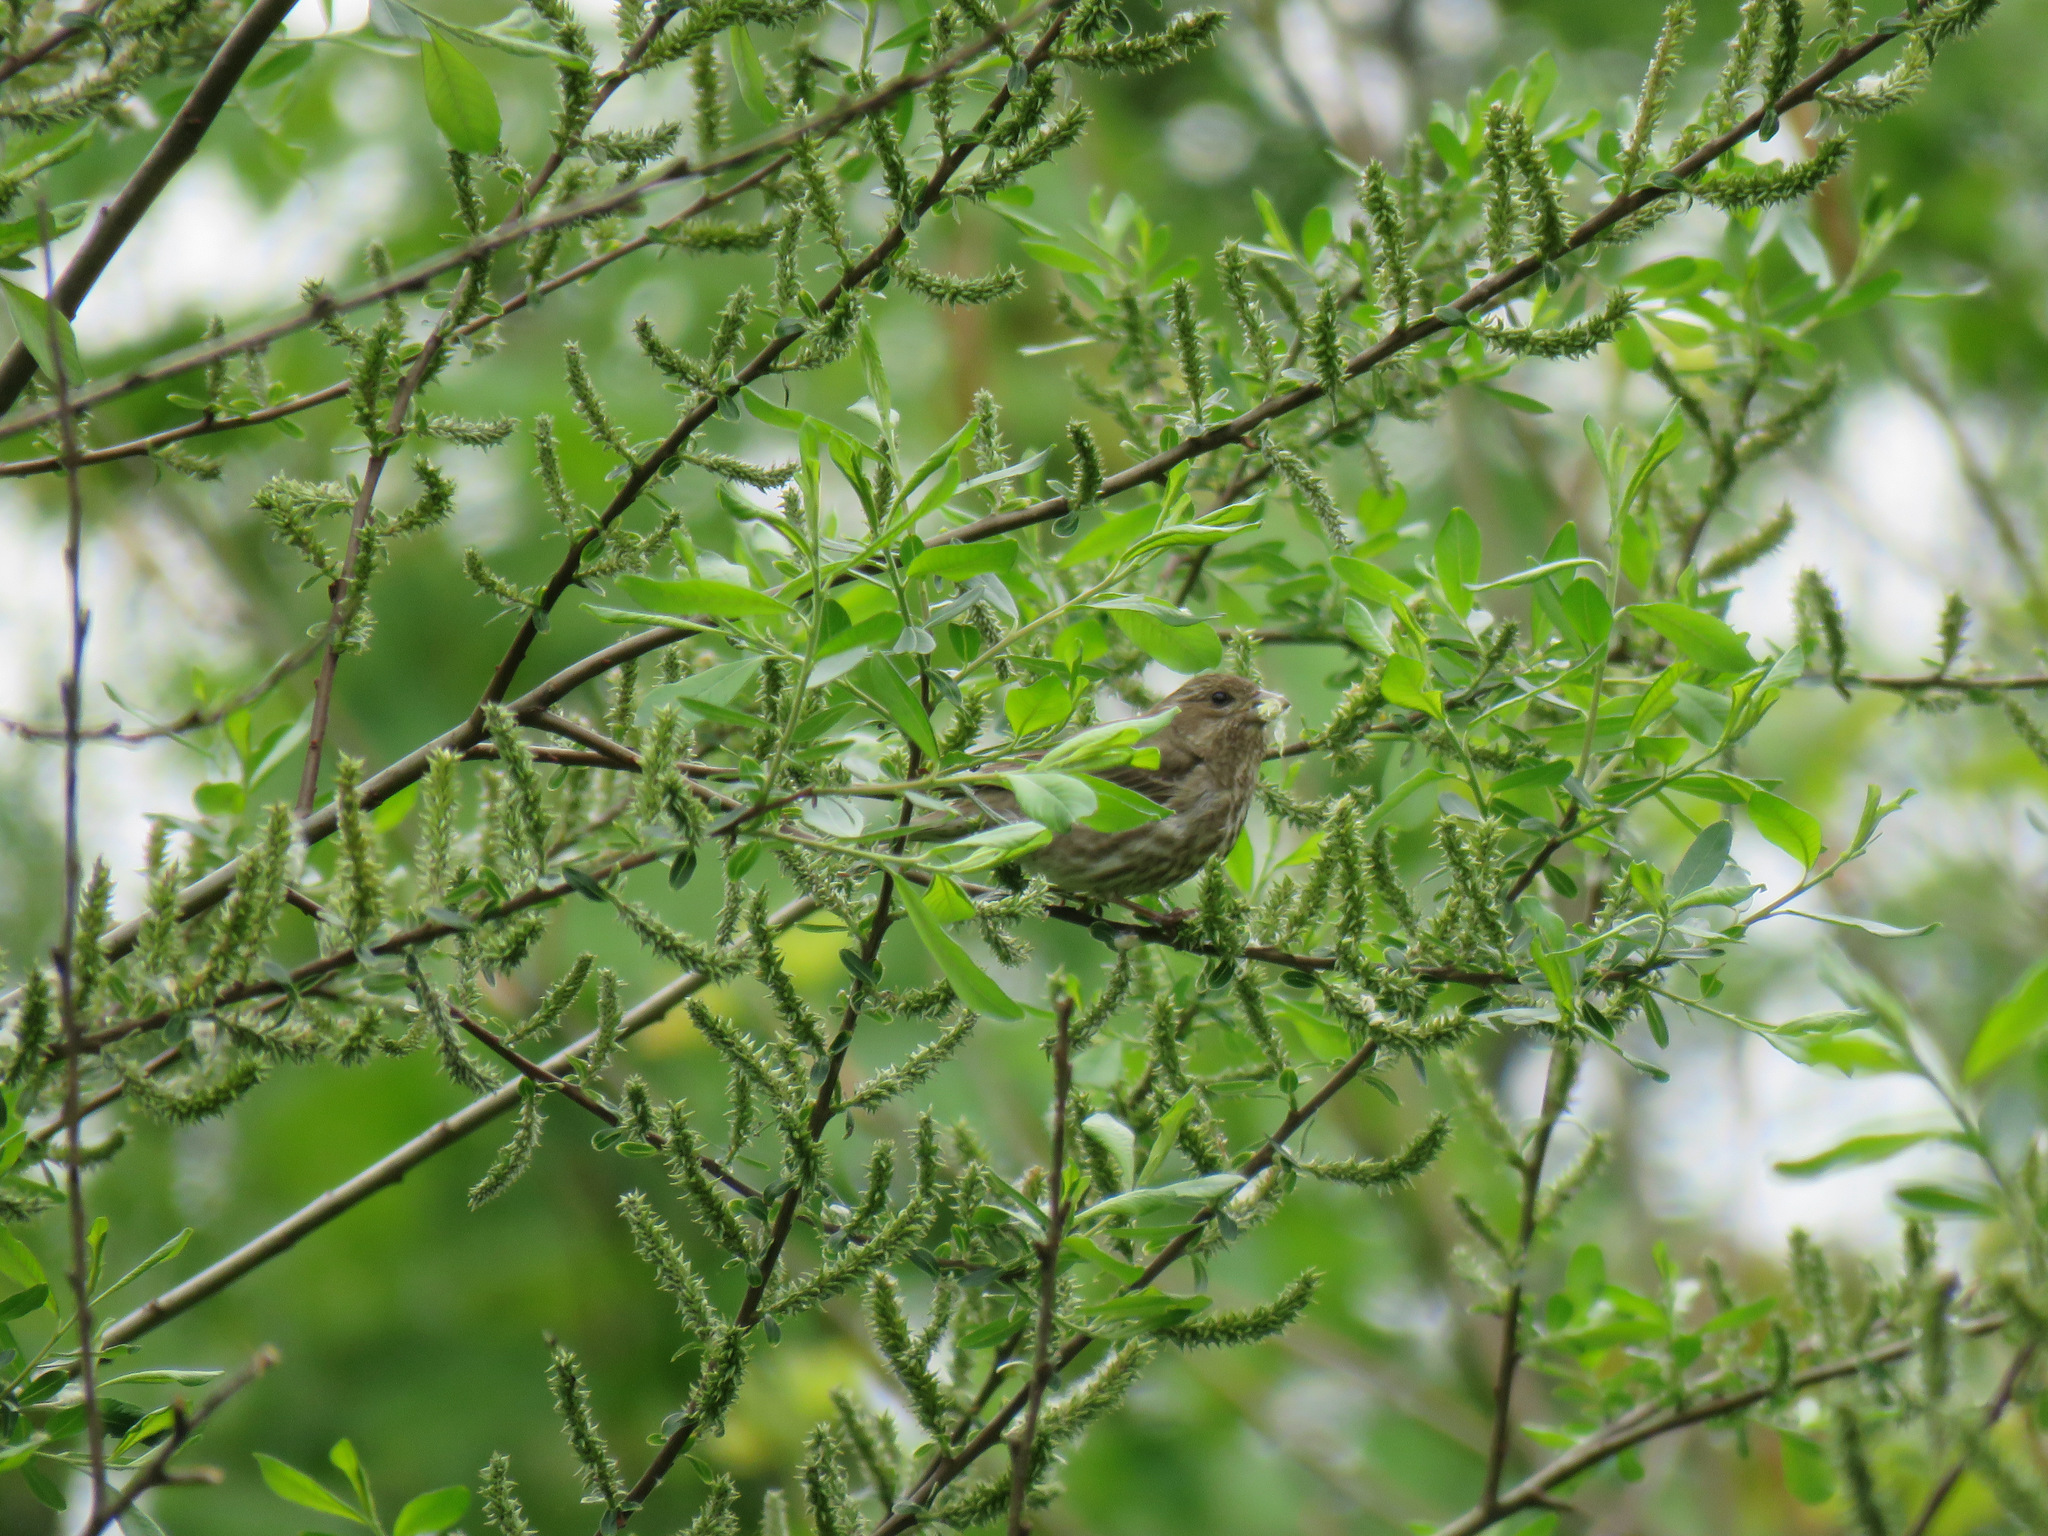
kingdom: Animalia
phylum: Chordata
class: Aves
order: Passeriformes
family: Fringillidae
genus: Haemorhous
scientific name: Haemorhous mexicanus
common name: House finch
